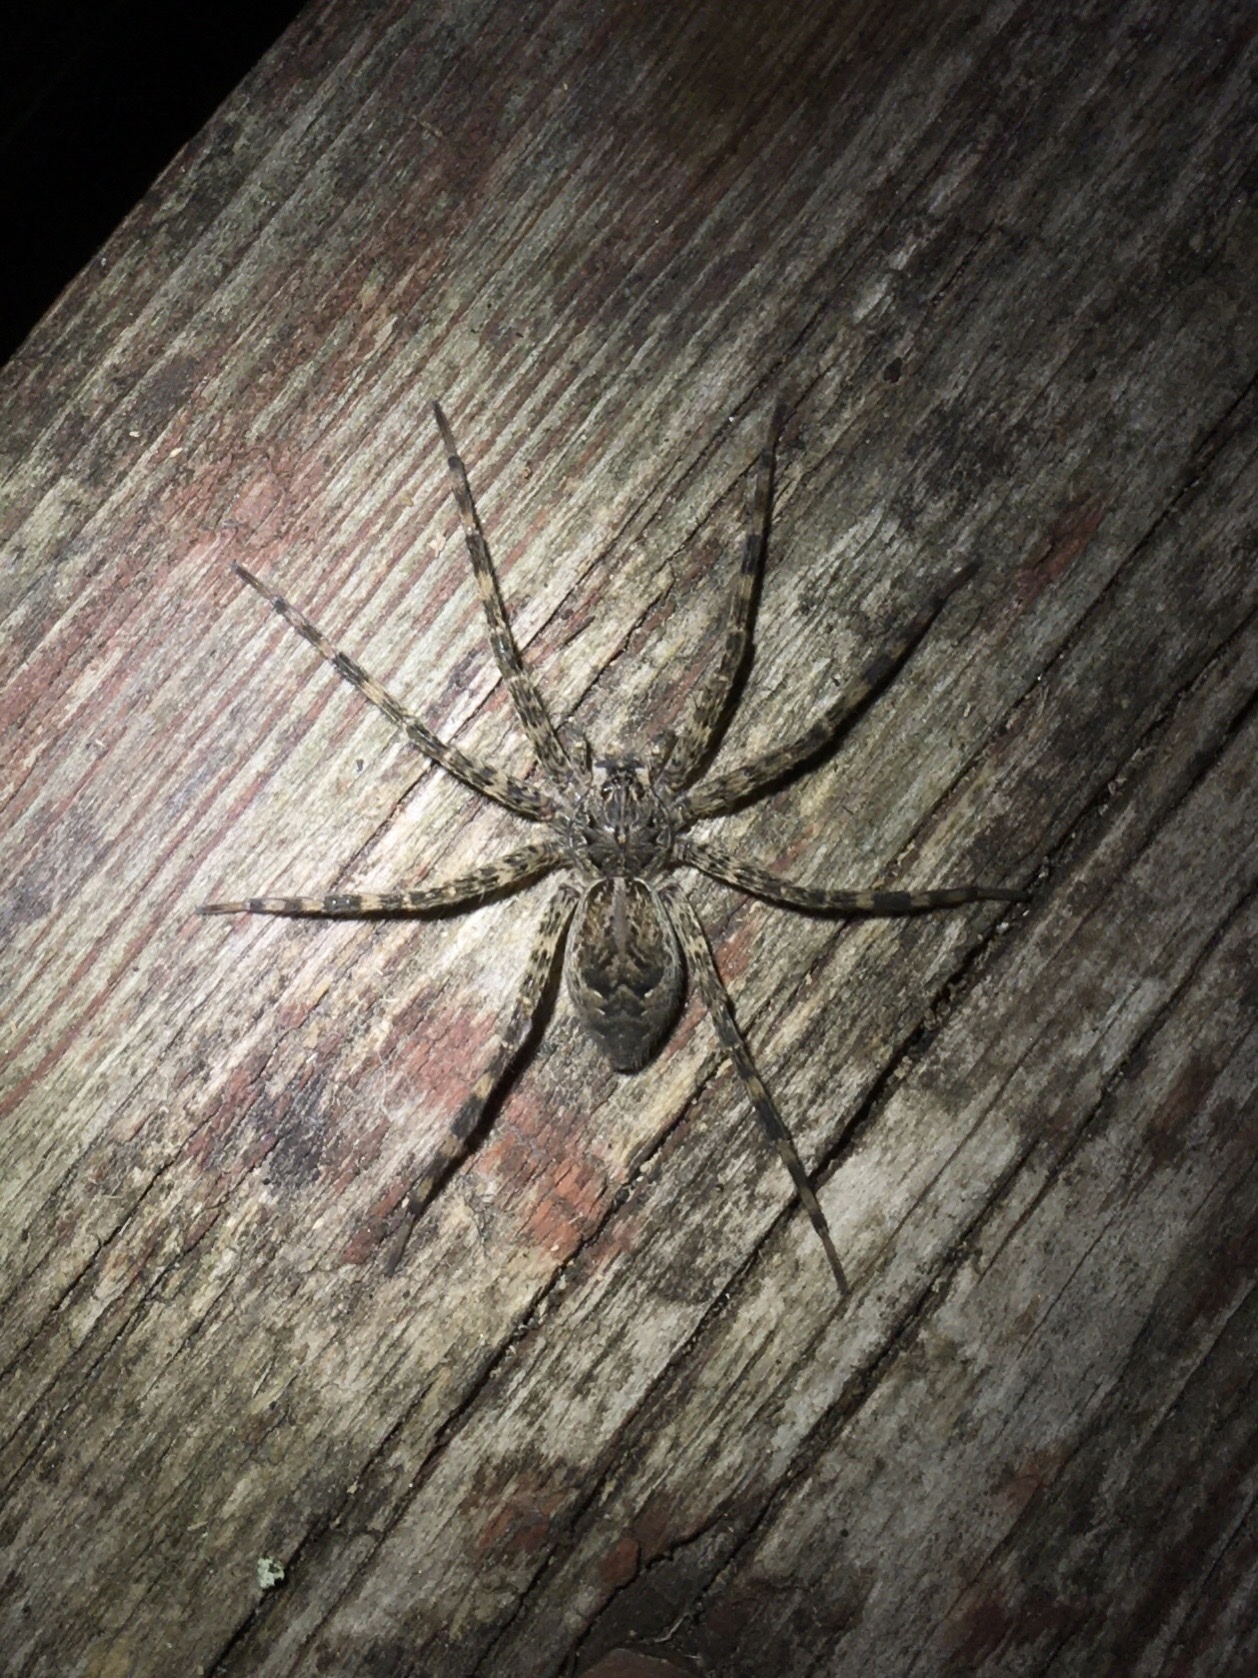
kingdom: Animalia
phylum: Arthropoda
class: Arachnida
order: Araneae
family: Pisauridae
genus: Dolomedes
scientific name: Dolomedes tenebrosus
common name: Dark fishing spider
